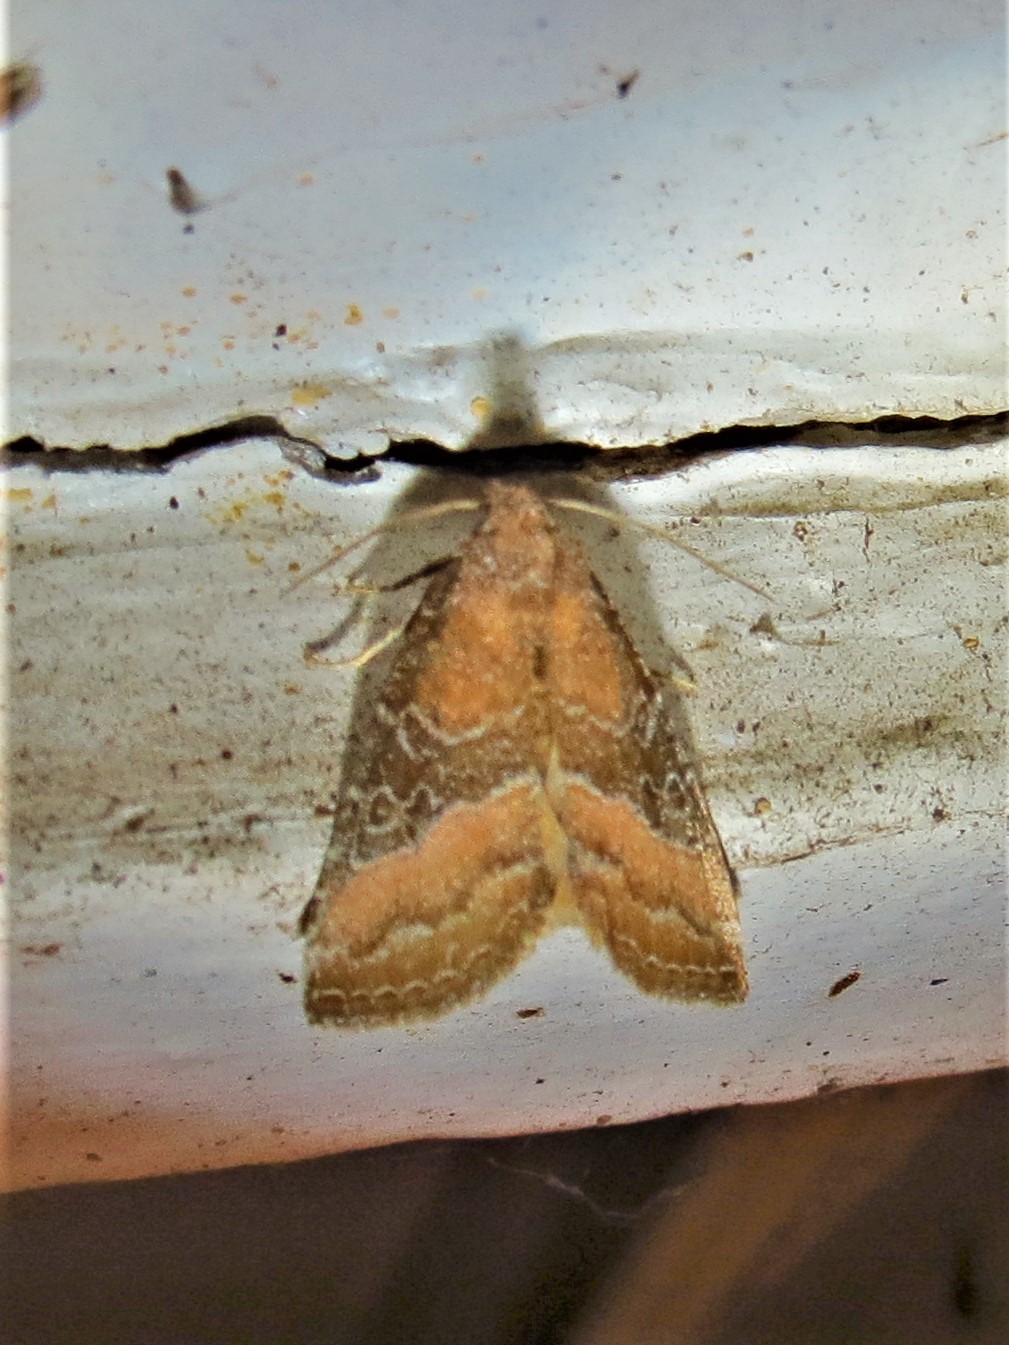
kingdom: Animalia
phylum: Arthropoda
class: Insecta
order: Lepidoptera
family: Noctuidae
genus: Ogdoconta
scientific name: Ogdoconta cinereola
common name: Common pinkband
